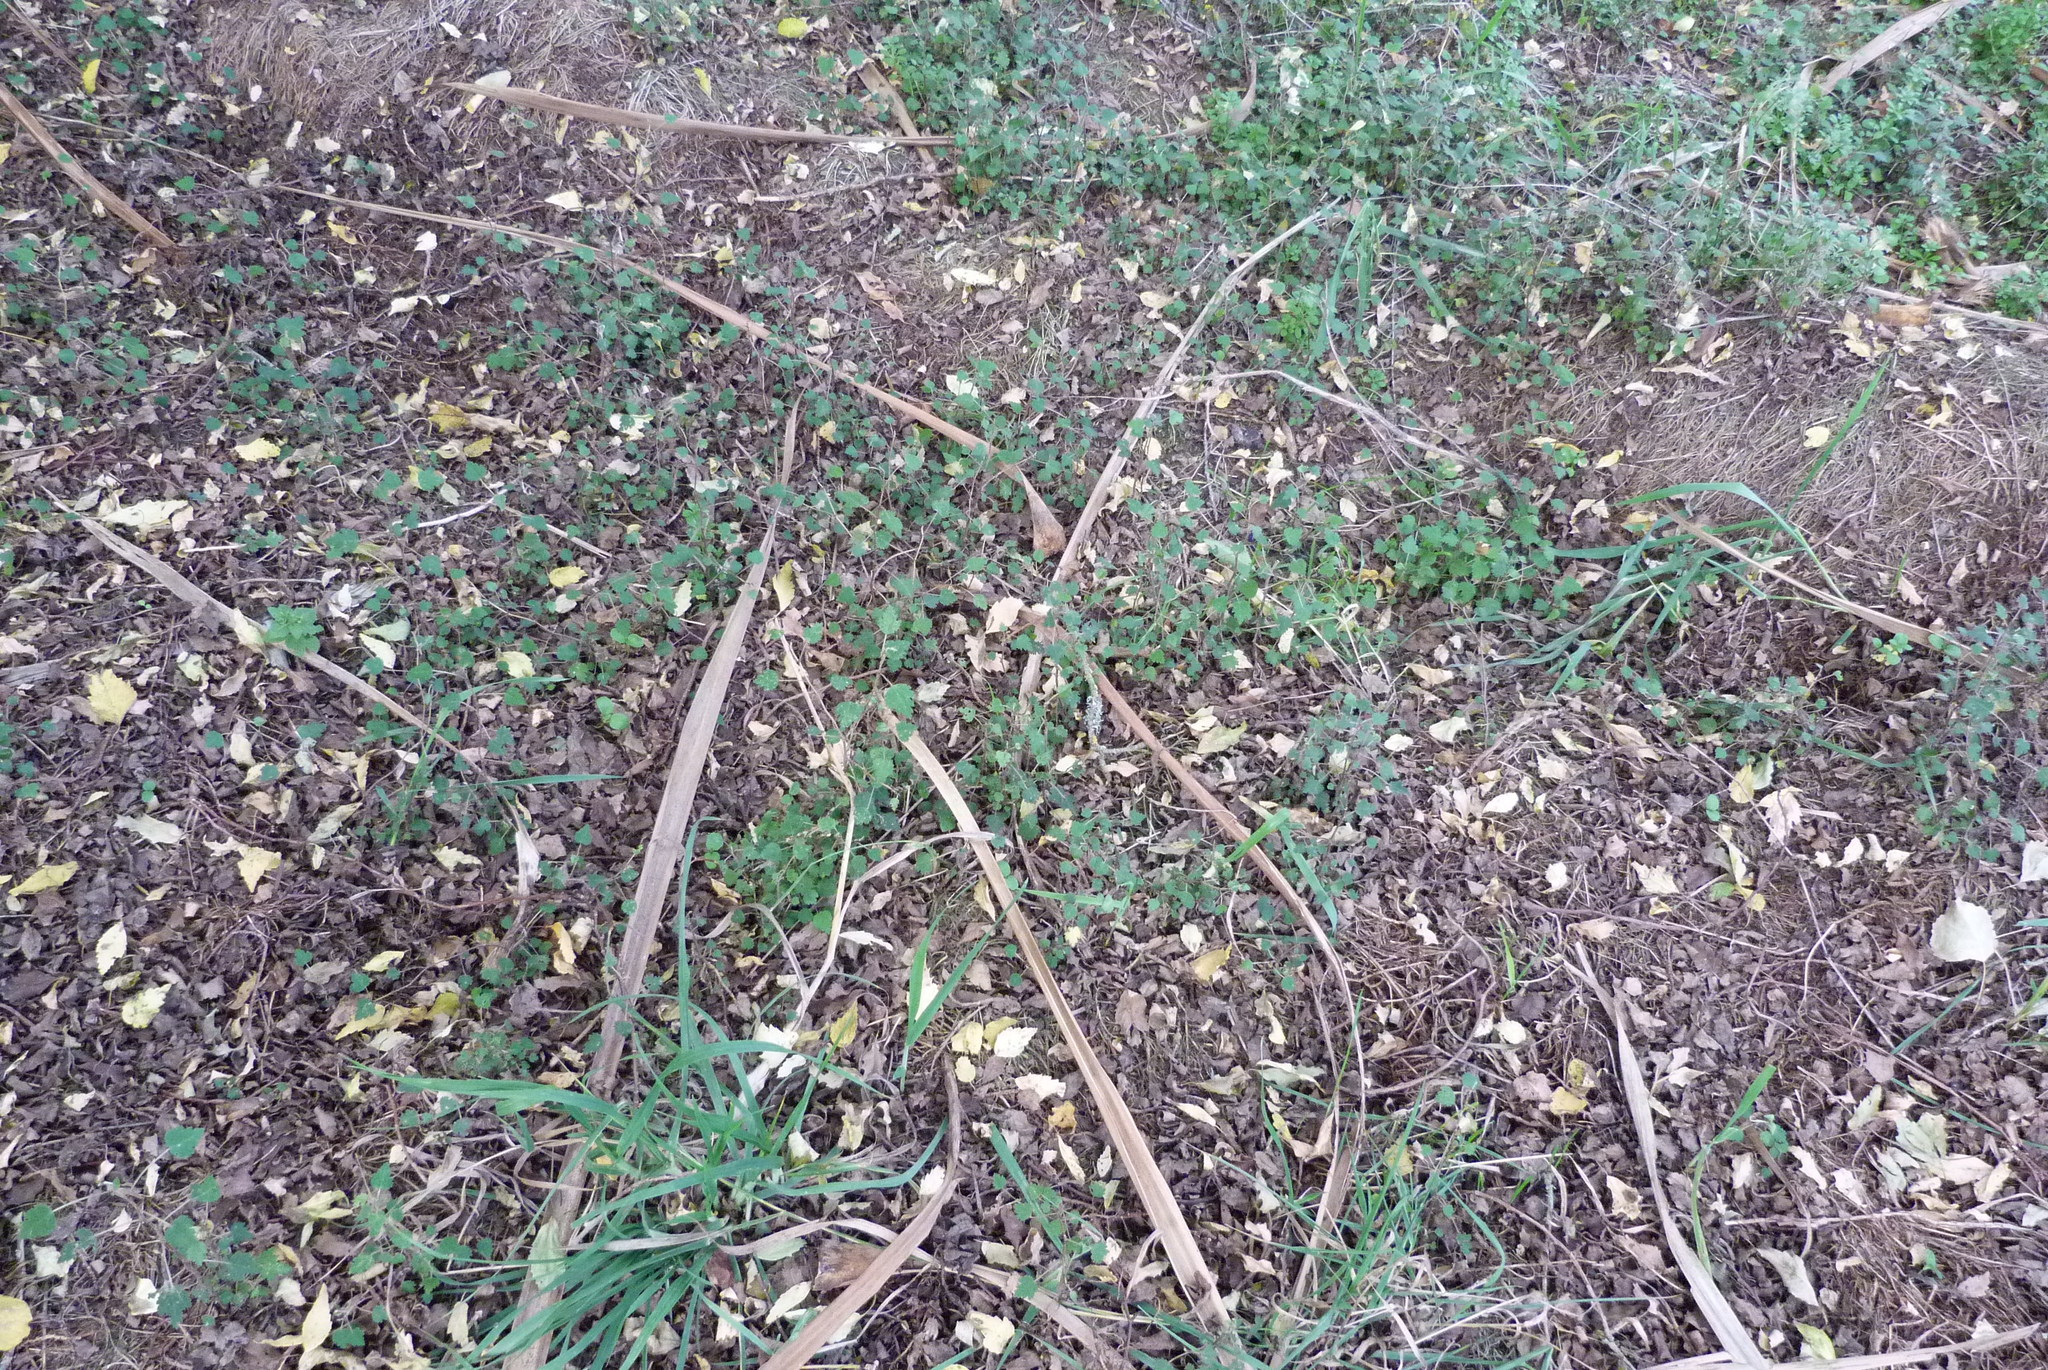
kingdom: Plantae
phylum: Tracheophyta
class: Magnoliopsida
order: Malvales
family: Malvaceae
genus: Plagianthus
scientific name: Plagianthus regius
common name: Manatu
